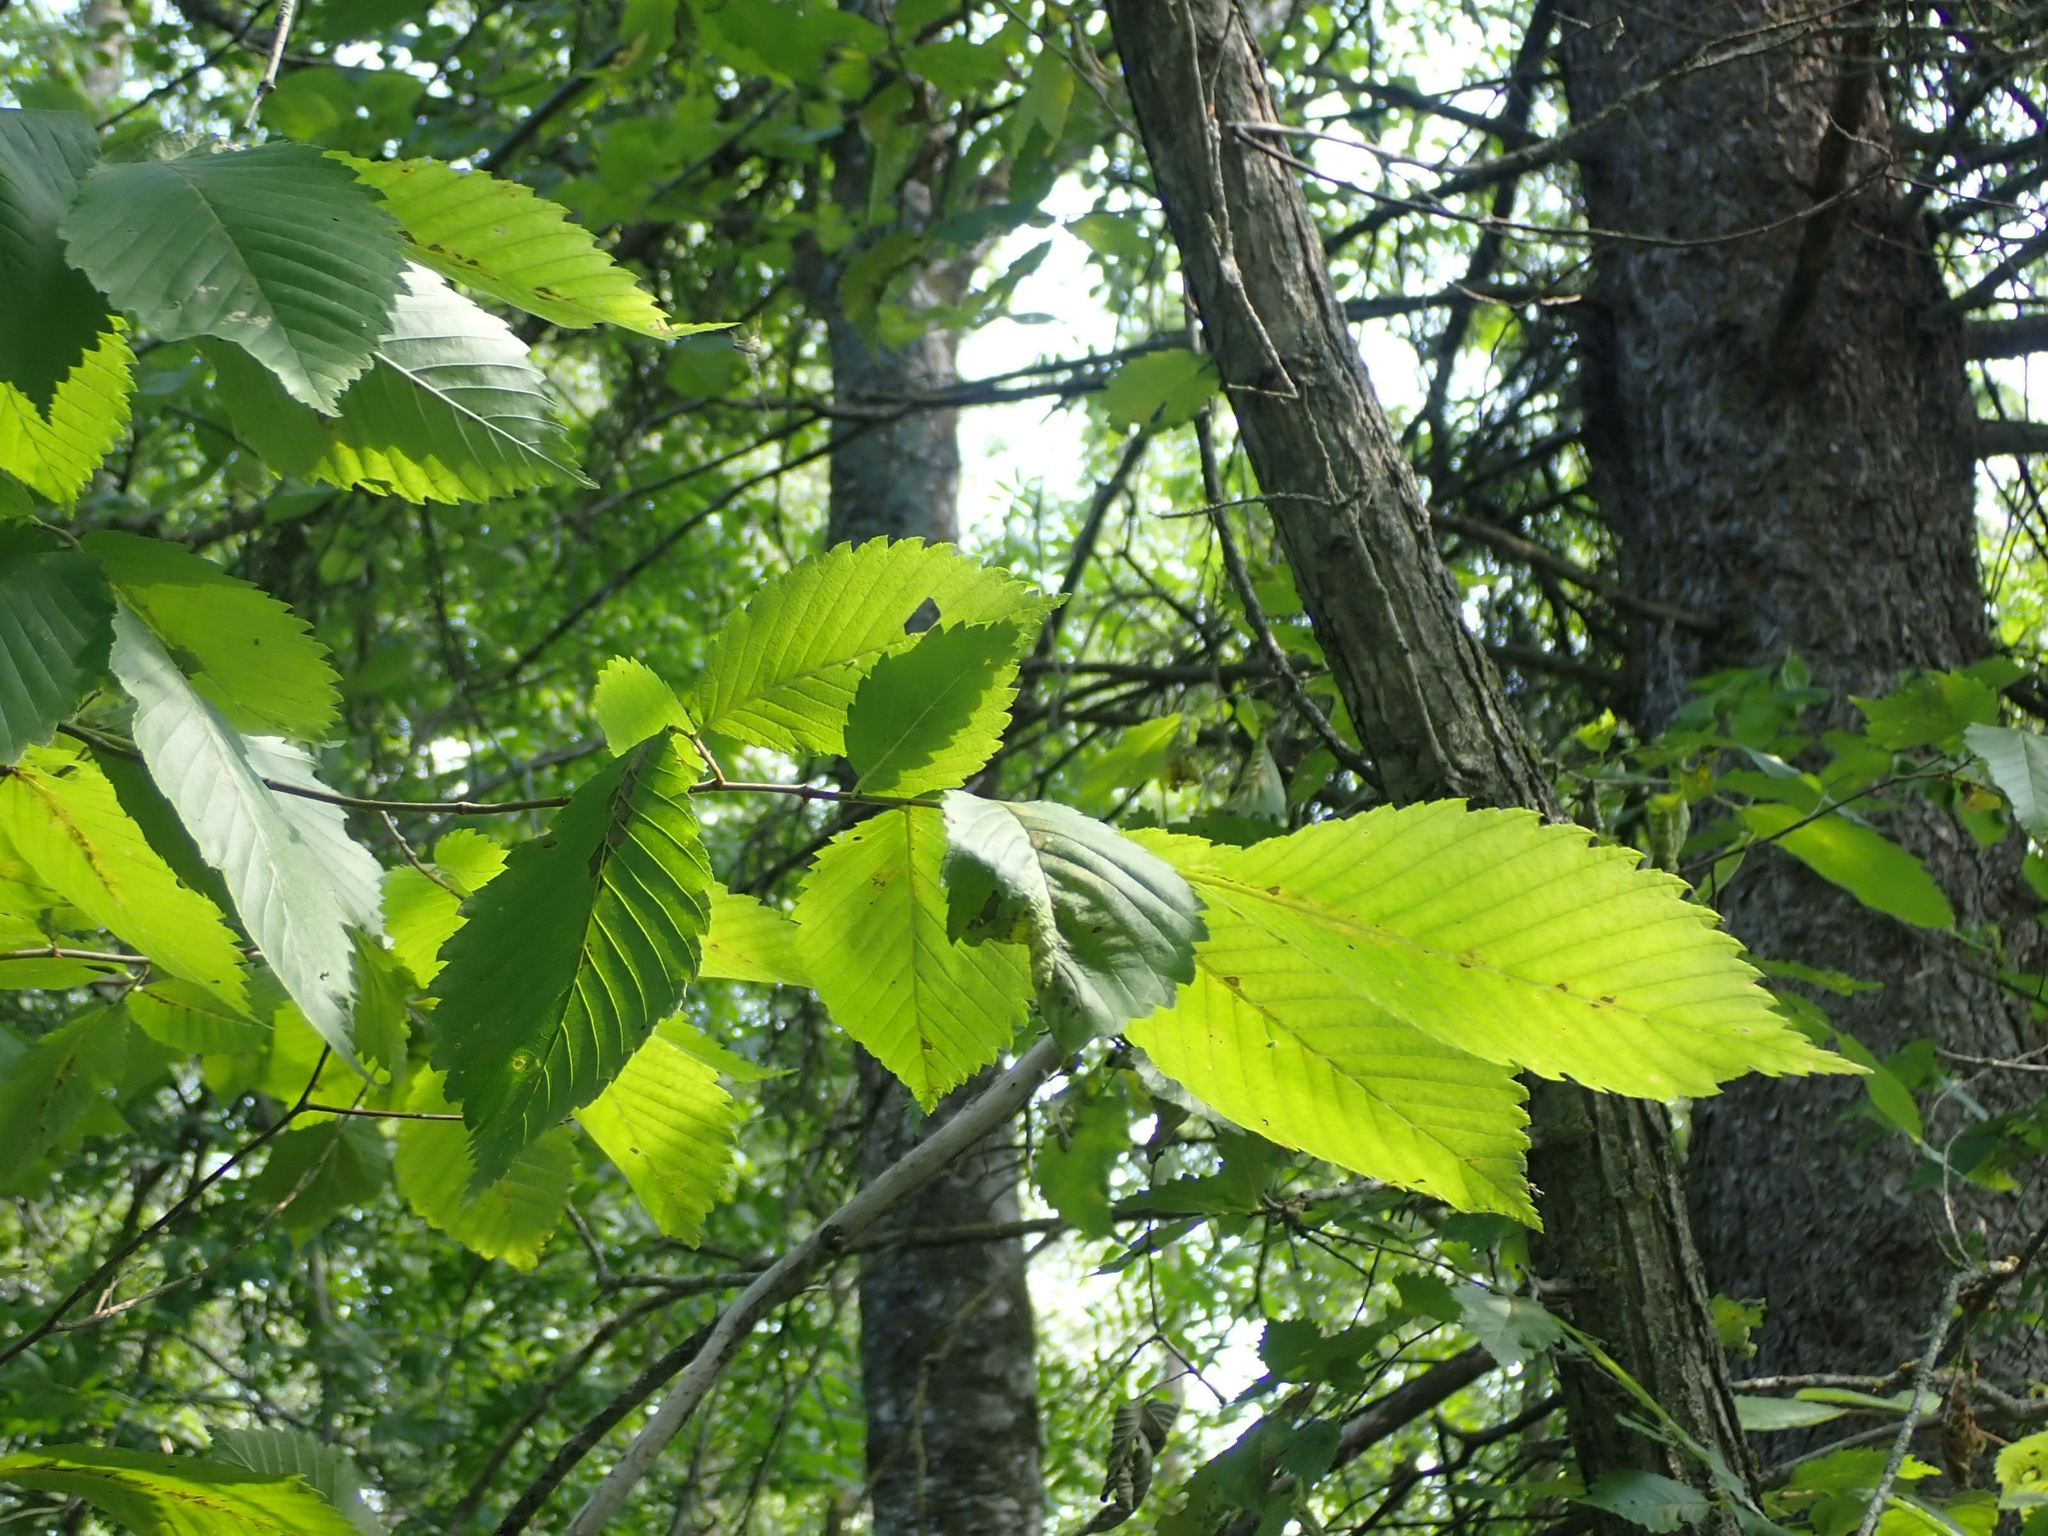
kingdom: Plantae
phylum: Tracheophyta
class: Magnoliopsida
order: Rosales
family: Ulmaceae
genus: Ulmus
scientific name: Ulmus americana
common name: American elm
